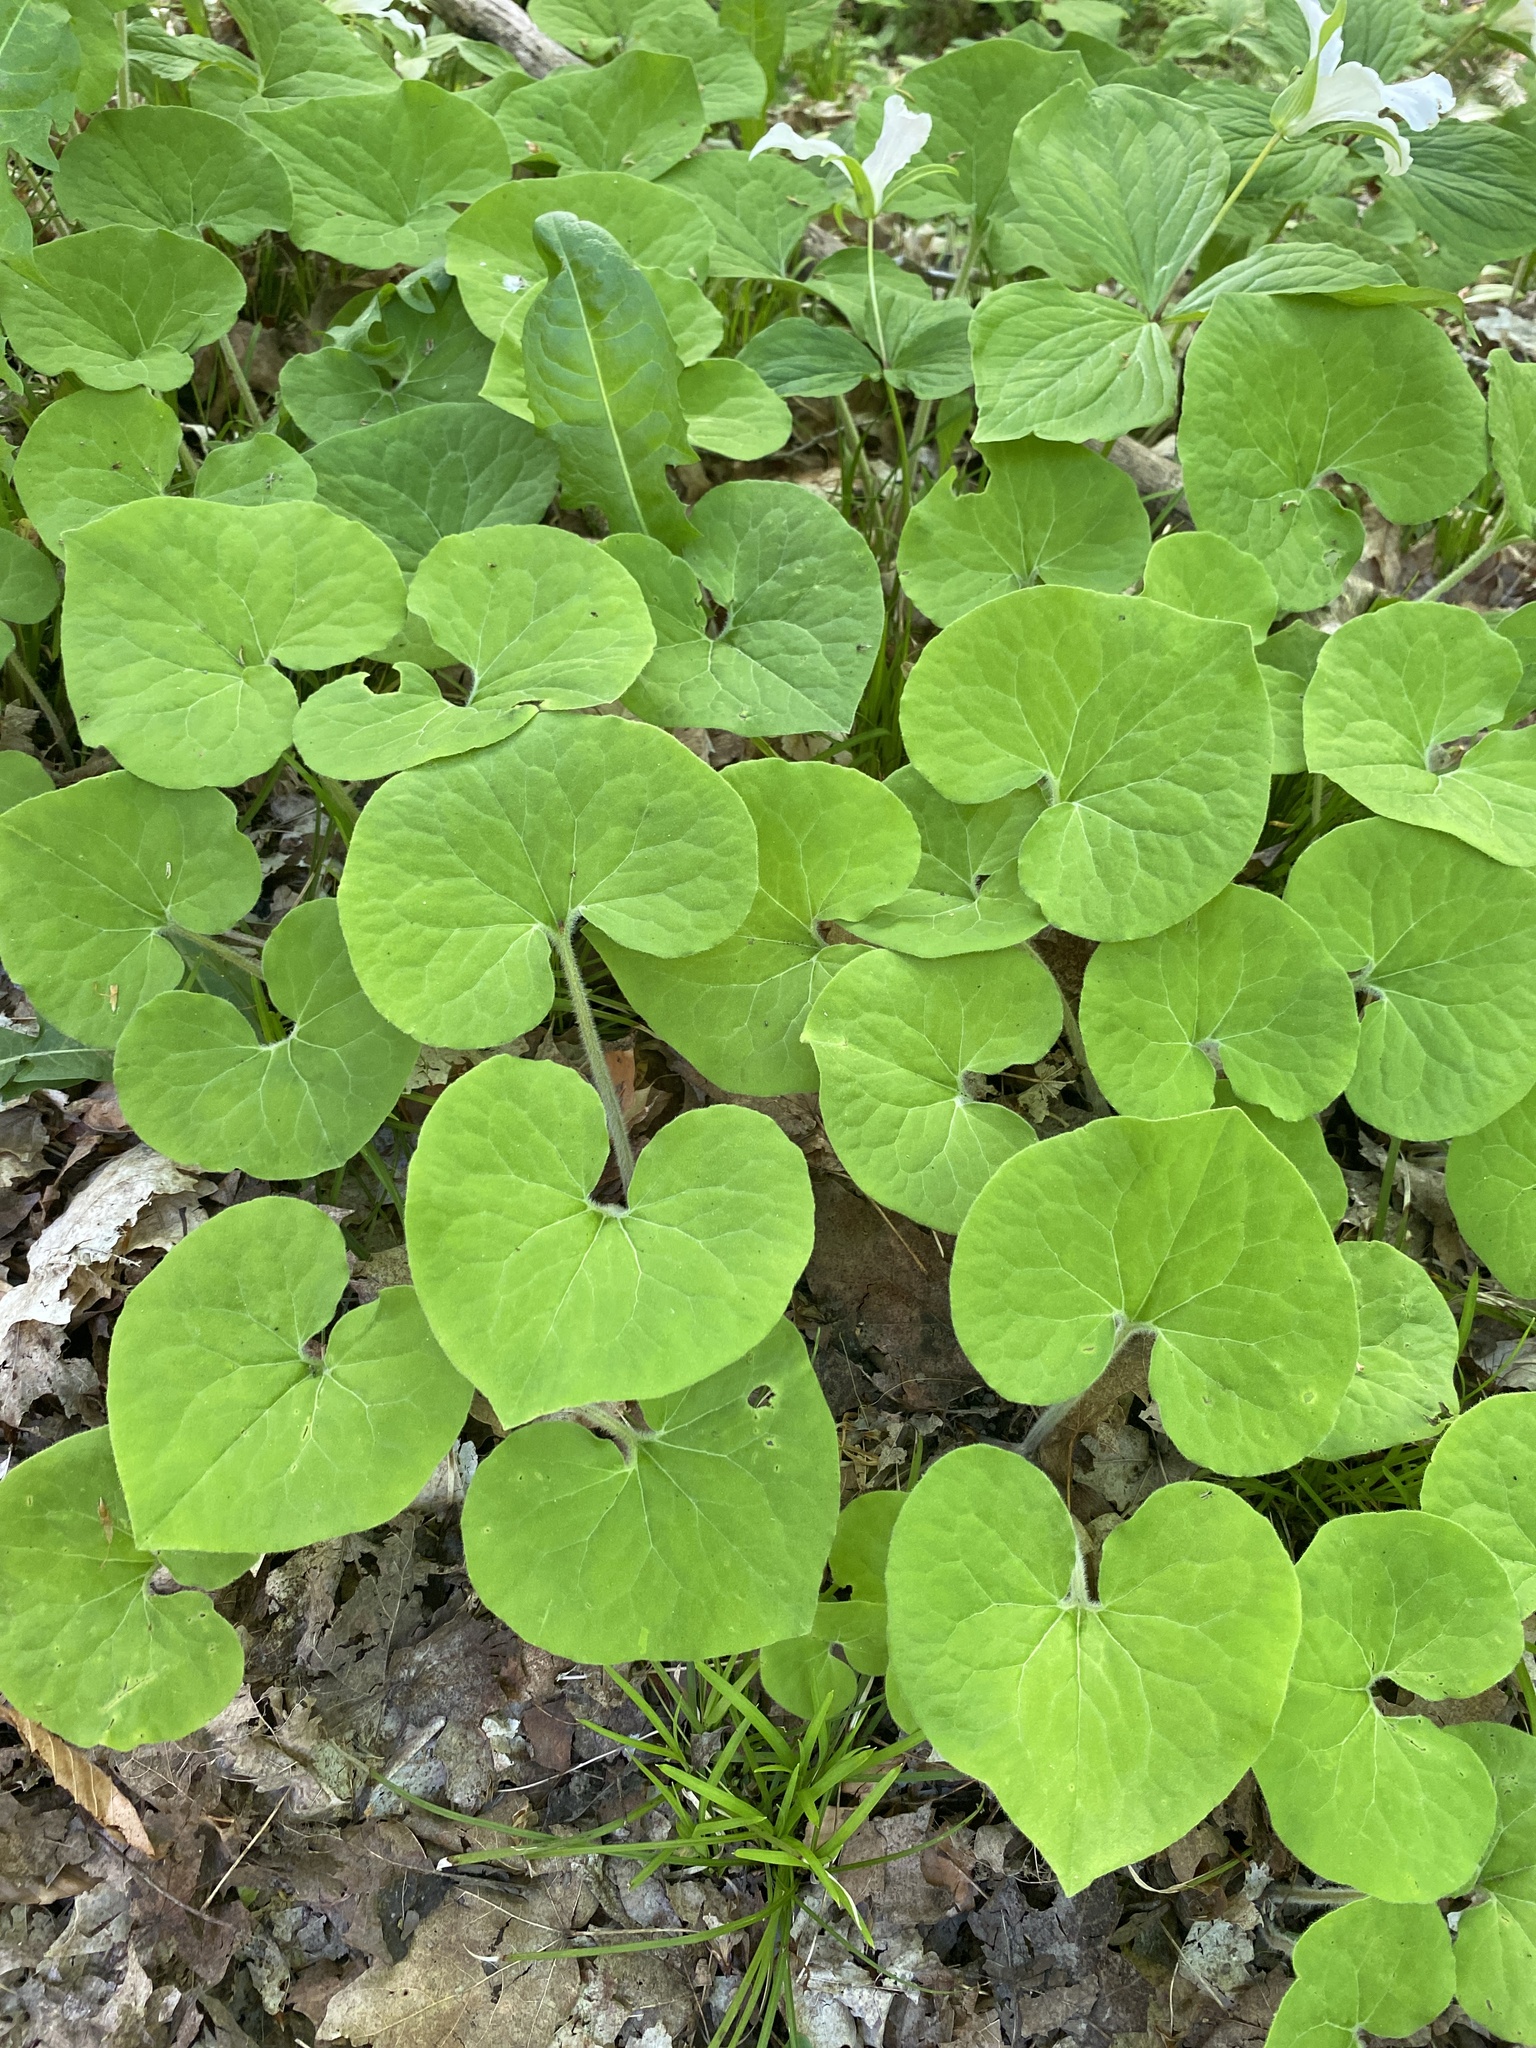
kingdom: Plantae
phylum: Tracheophyta
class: Magnoliopsida
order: Piperales
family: Aristolochiaceae
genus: Asarum
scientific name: Asarum canadense
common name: Wild ginger
